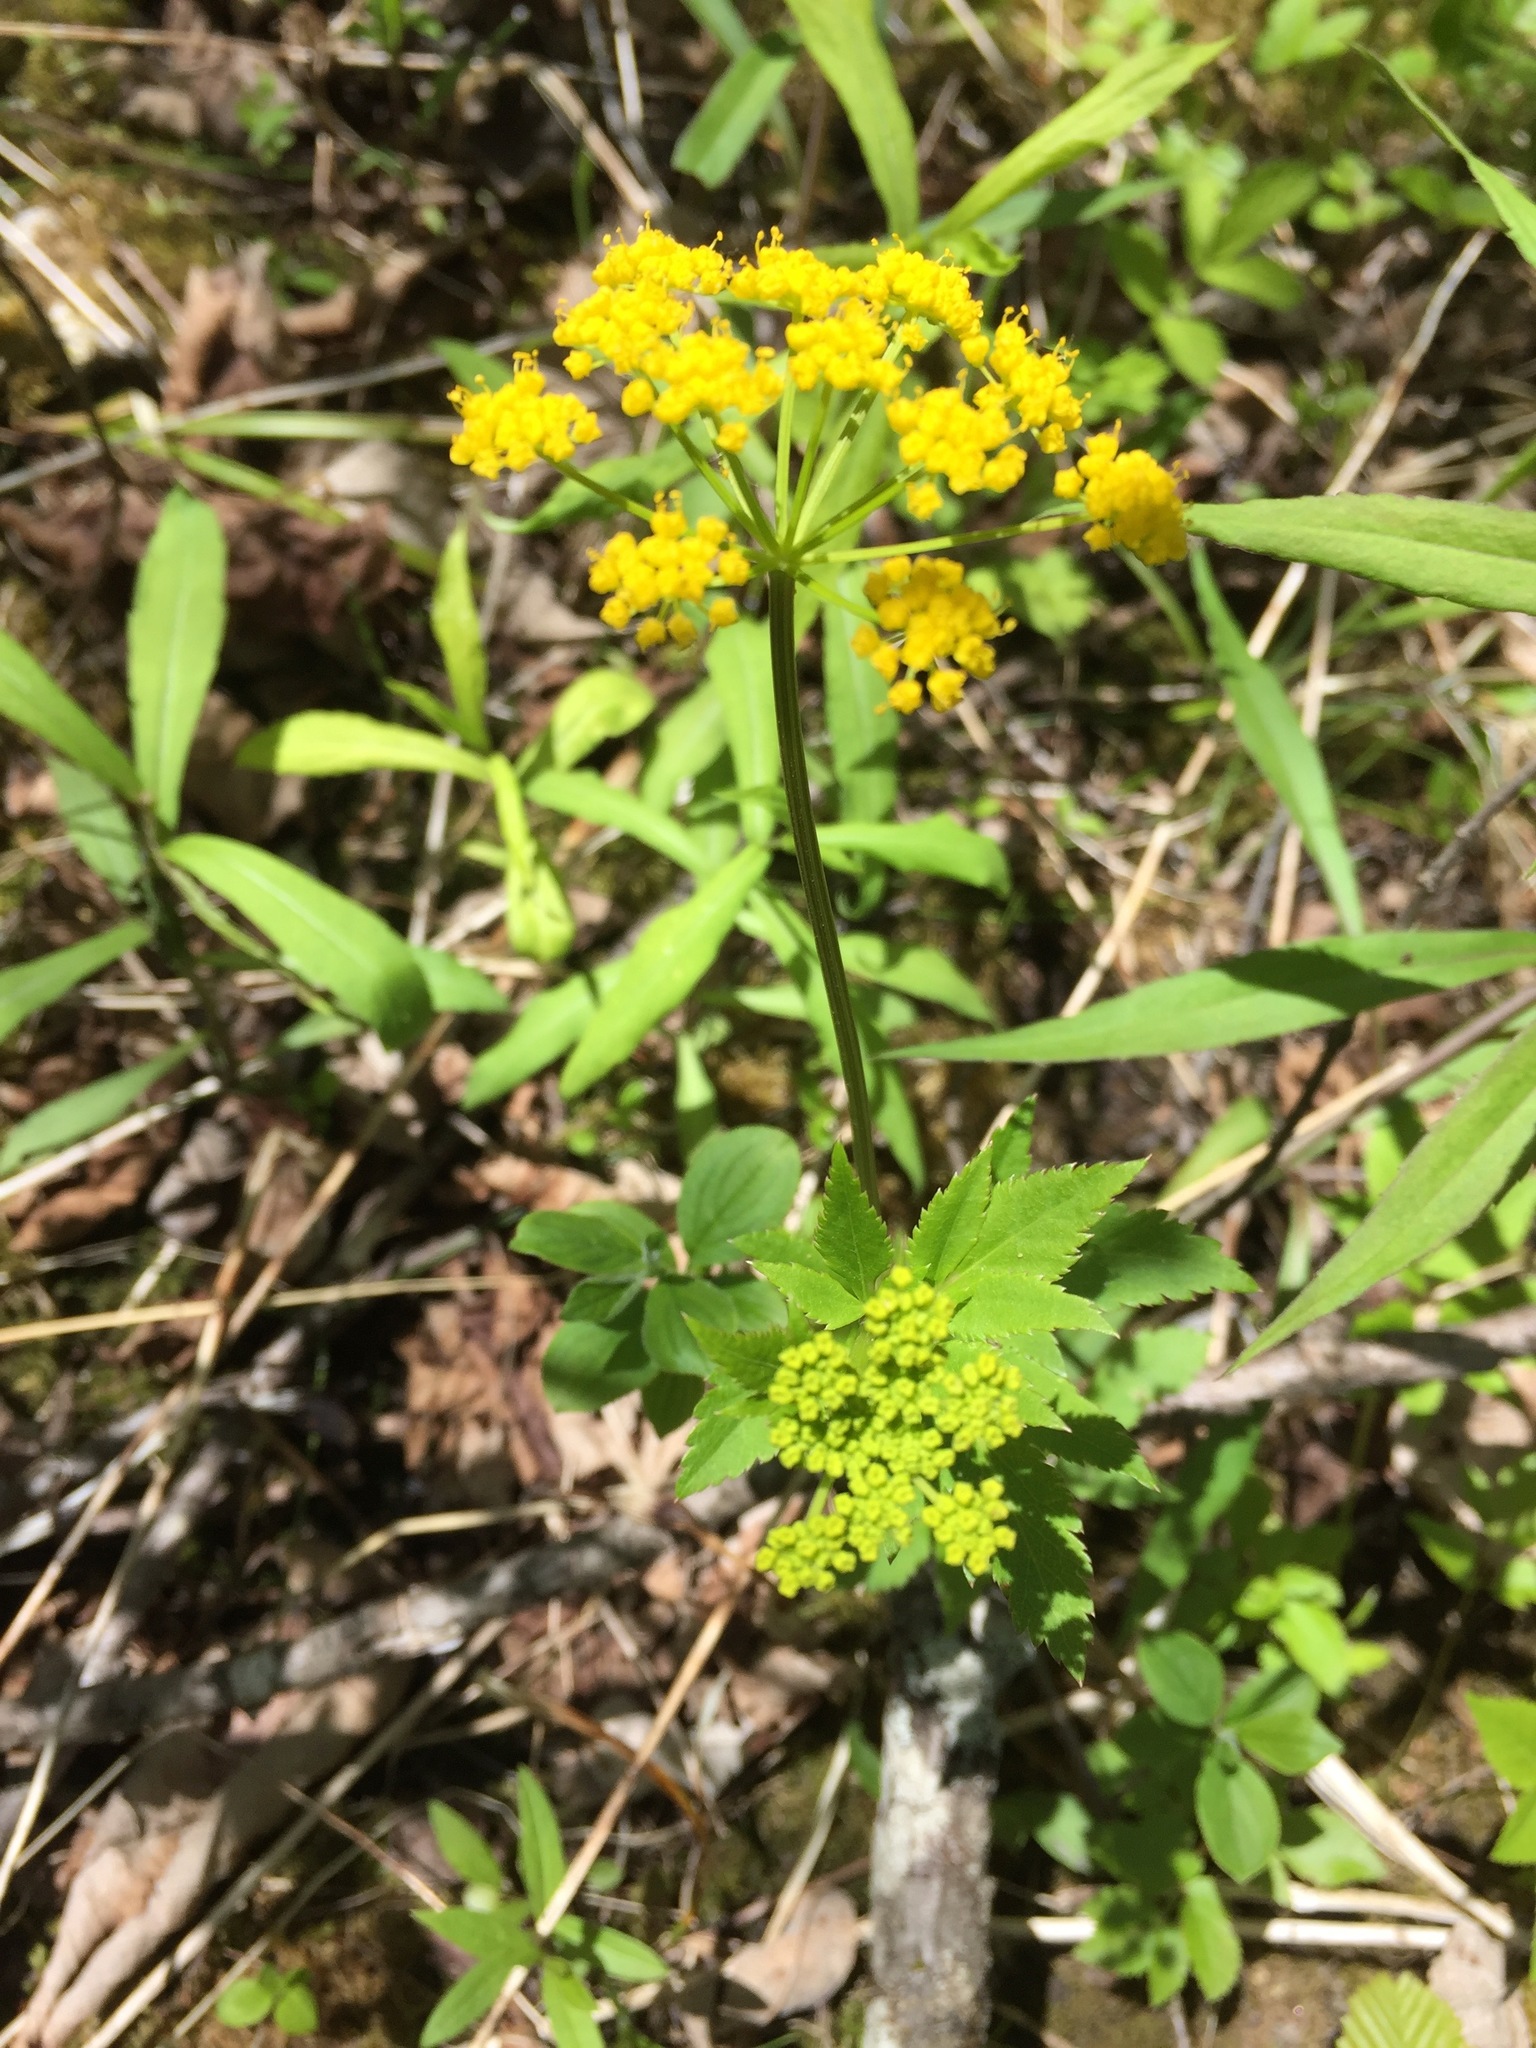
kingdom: Plantae
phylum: Tracheophyta
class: Magnoliopsida
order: Apiales
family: Apiaceae
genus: Zizia
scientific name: Zizia aurea
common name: Golden alexanders
